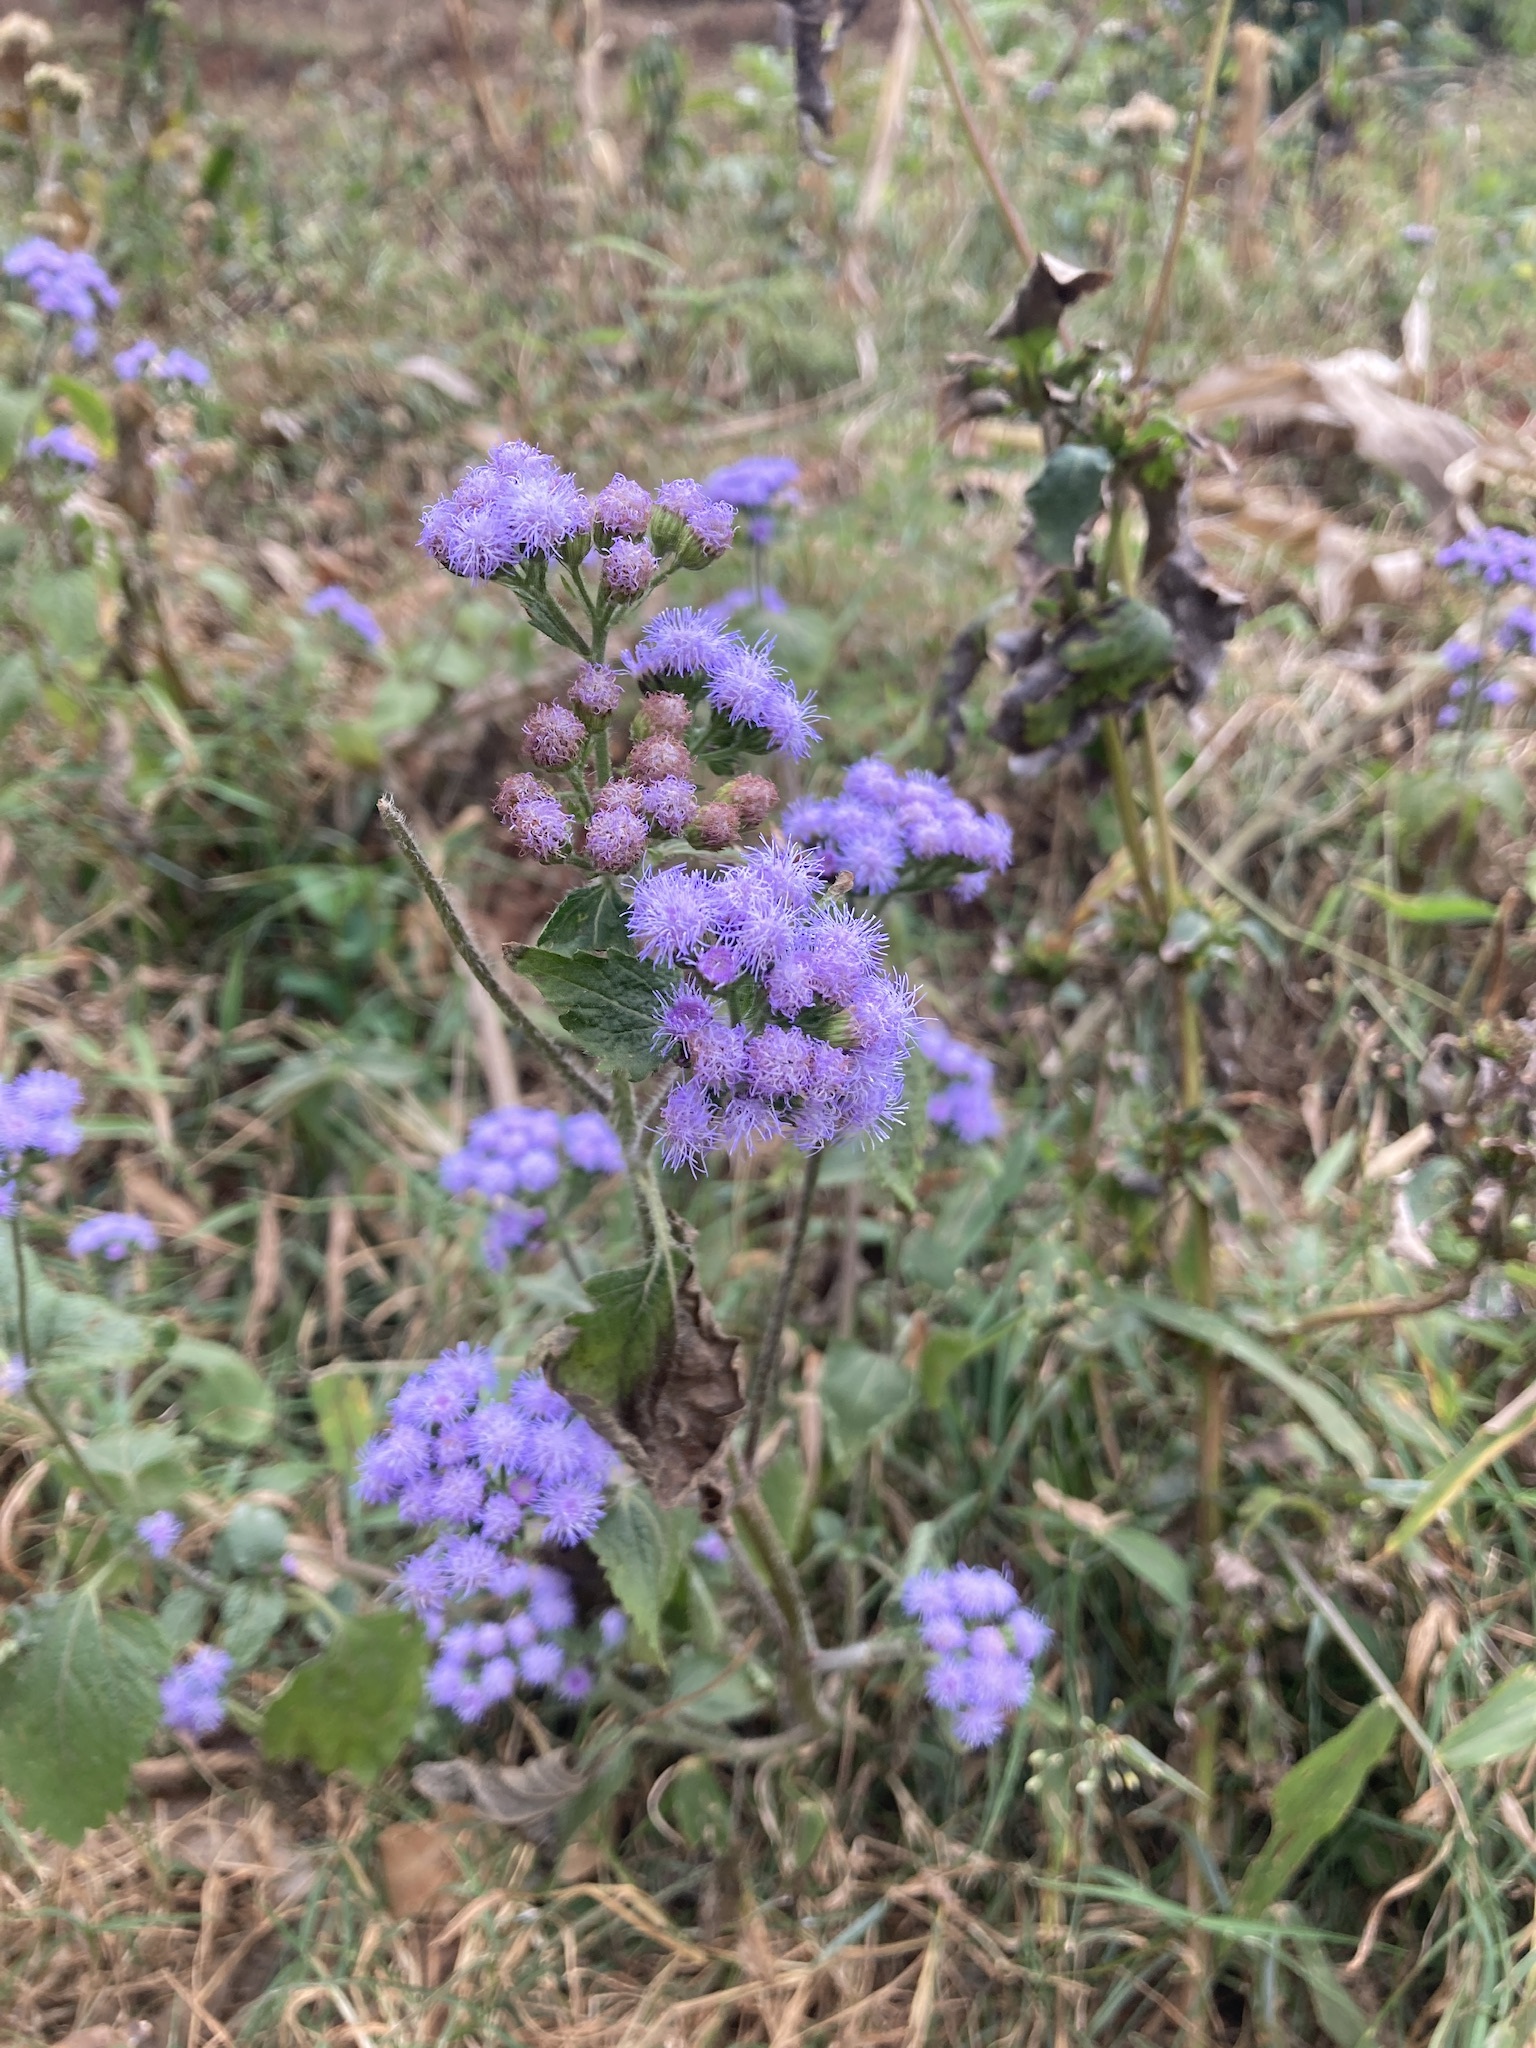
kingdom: Plantae
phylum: Tracheophyta
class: Magnoliopsida
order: Asterales
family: Asteraceae
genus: Ageratum
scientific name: Ageratum houstonianum
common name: Bluemink
